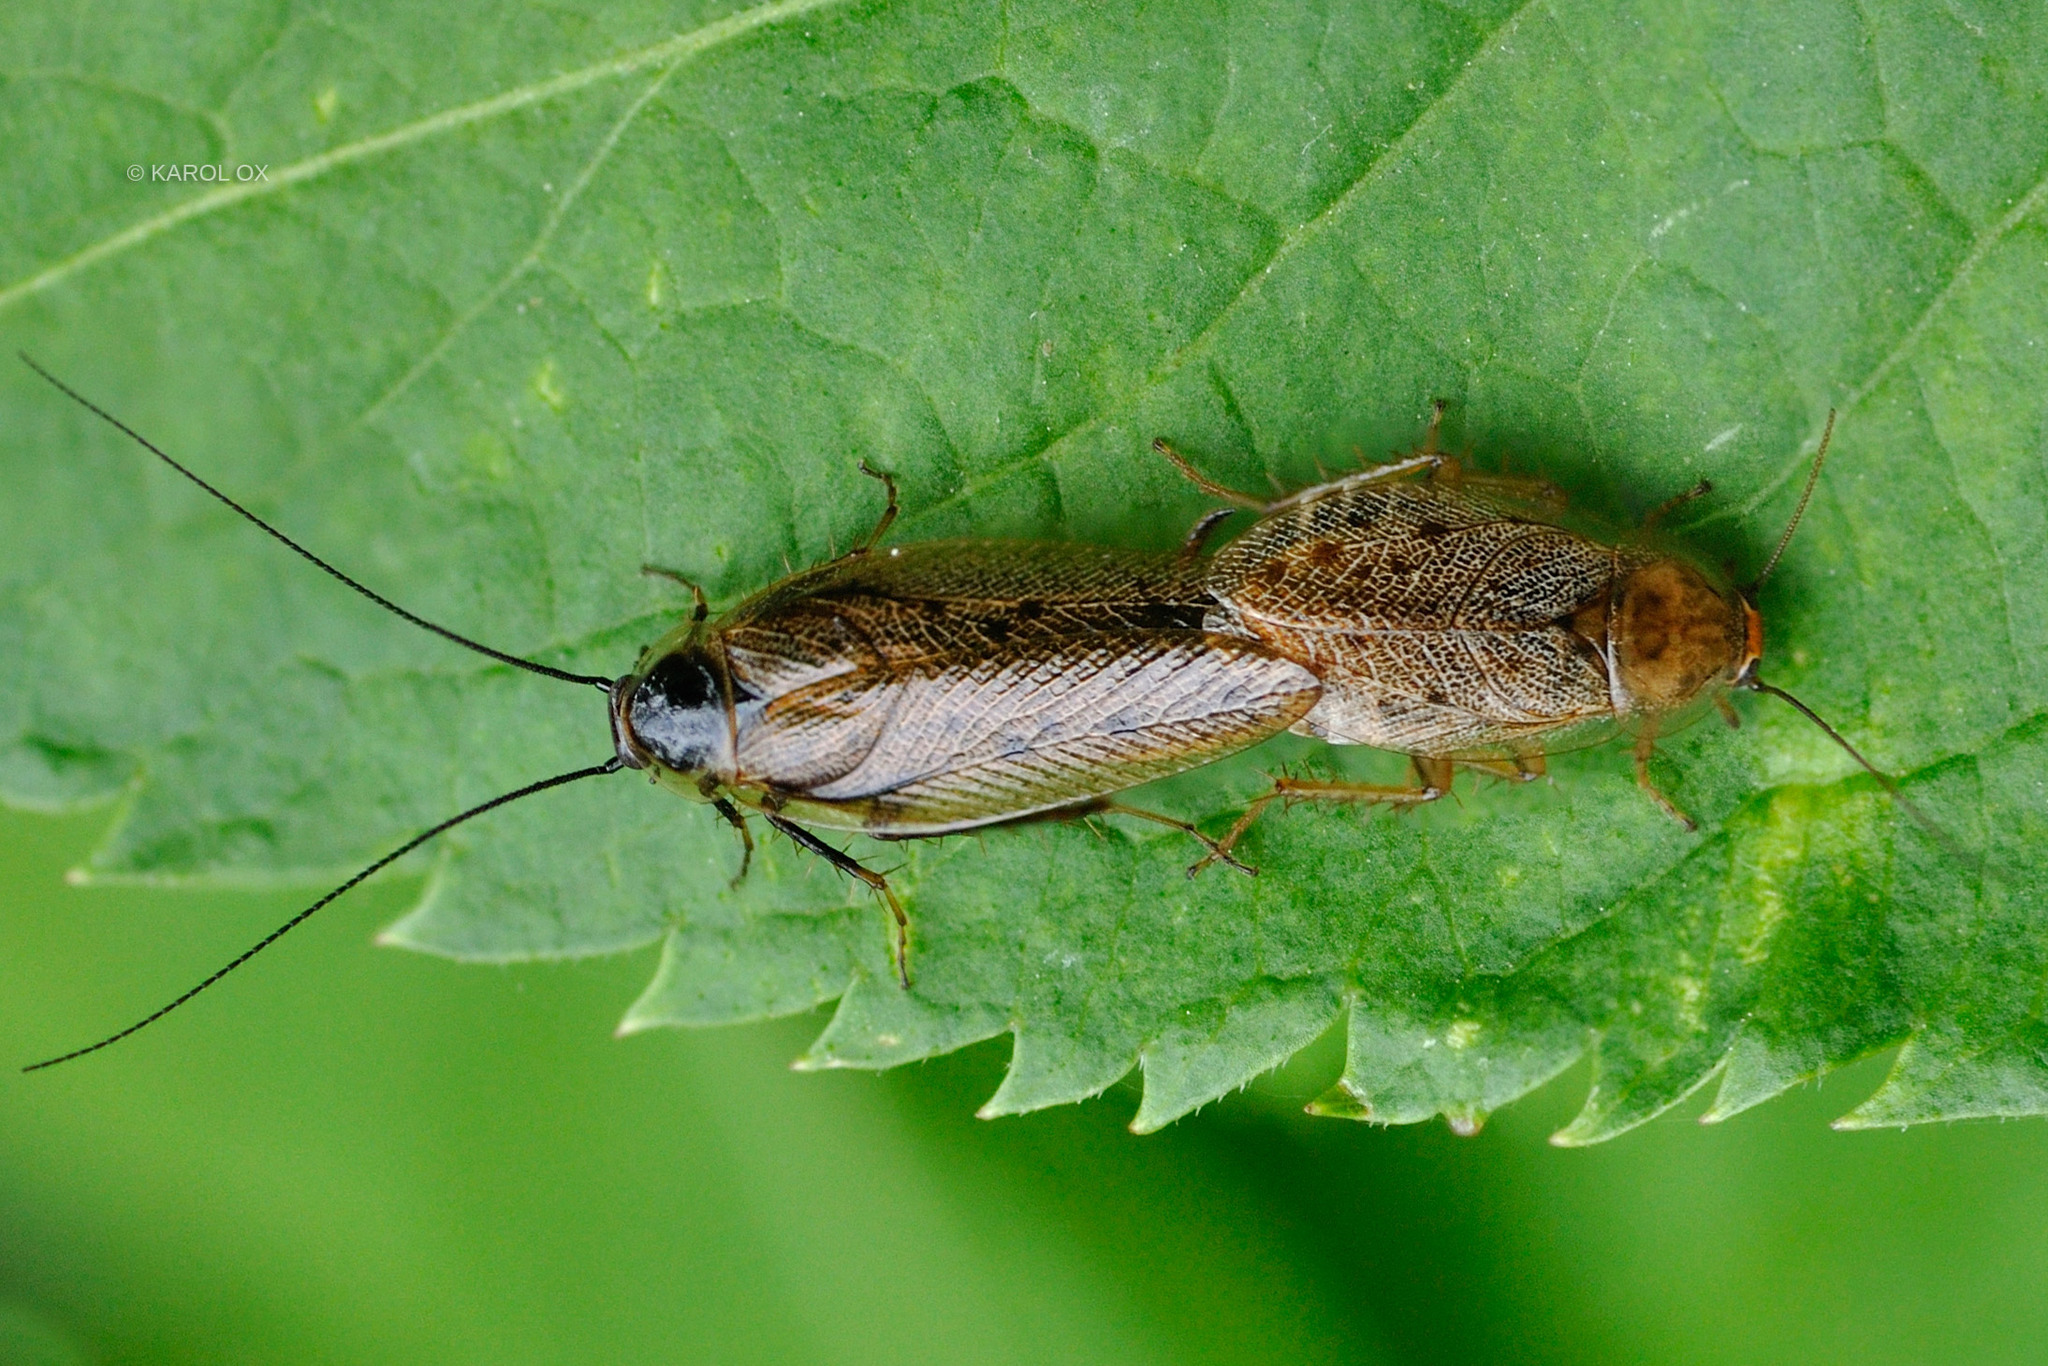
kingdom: Animalia
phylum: Arthropoda
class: Insecta
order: Blattodea
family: Ectobiidae
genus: Ectobius
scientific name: Ectobius lapponicus
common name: Dusky cockroach
